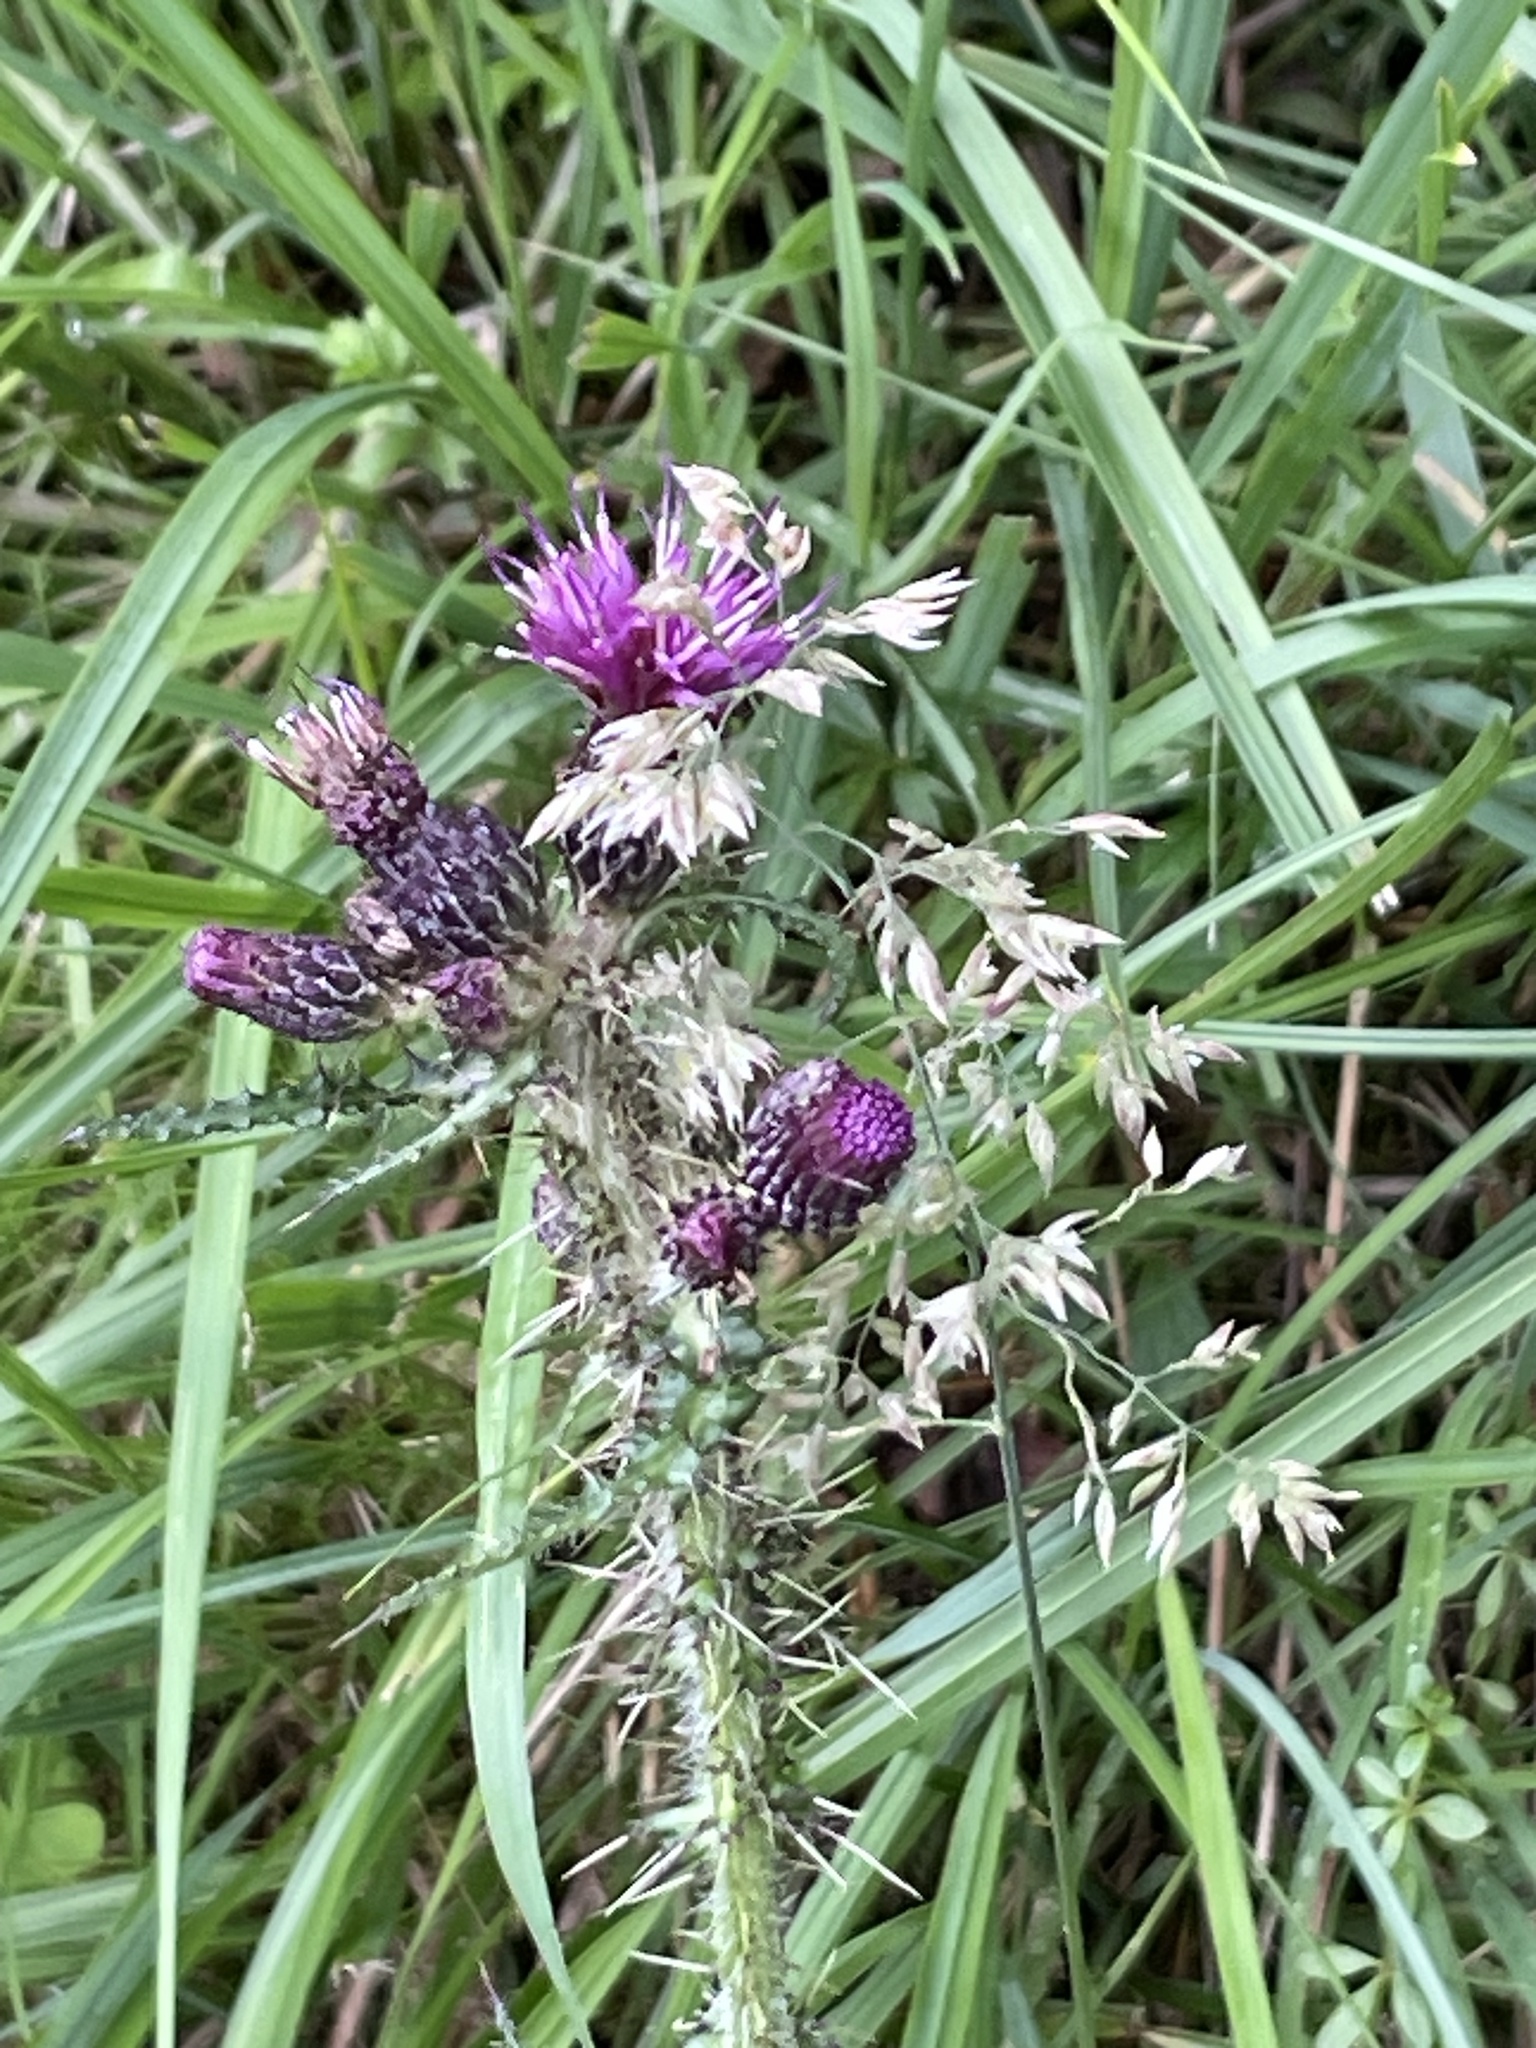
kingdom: Plantae
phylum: Tracheophyta
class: Magnoliopsida
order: Asterales
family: Asteraceae
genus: Cirsium
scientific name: Cirsium palustre
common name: Marsh thistle
